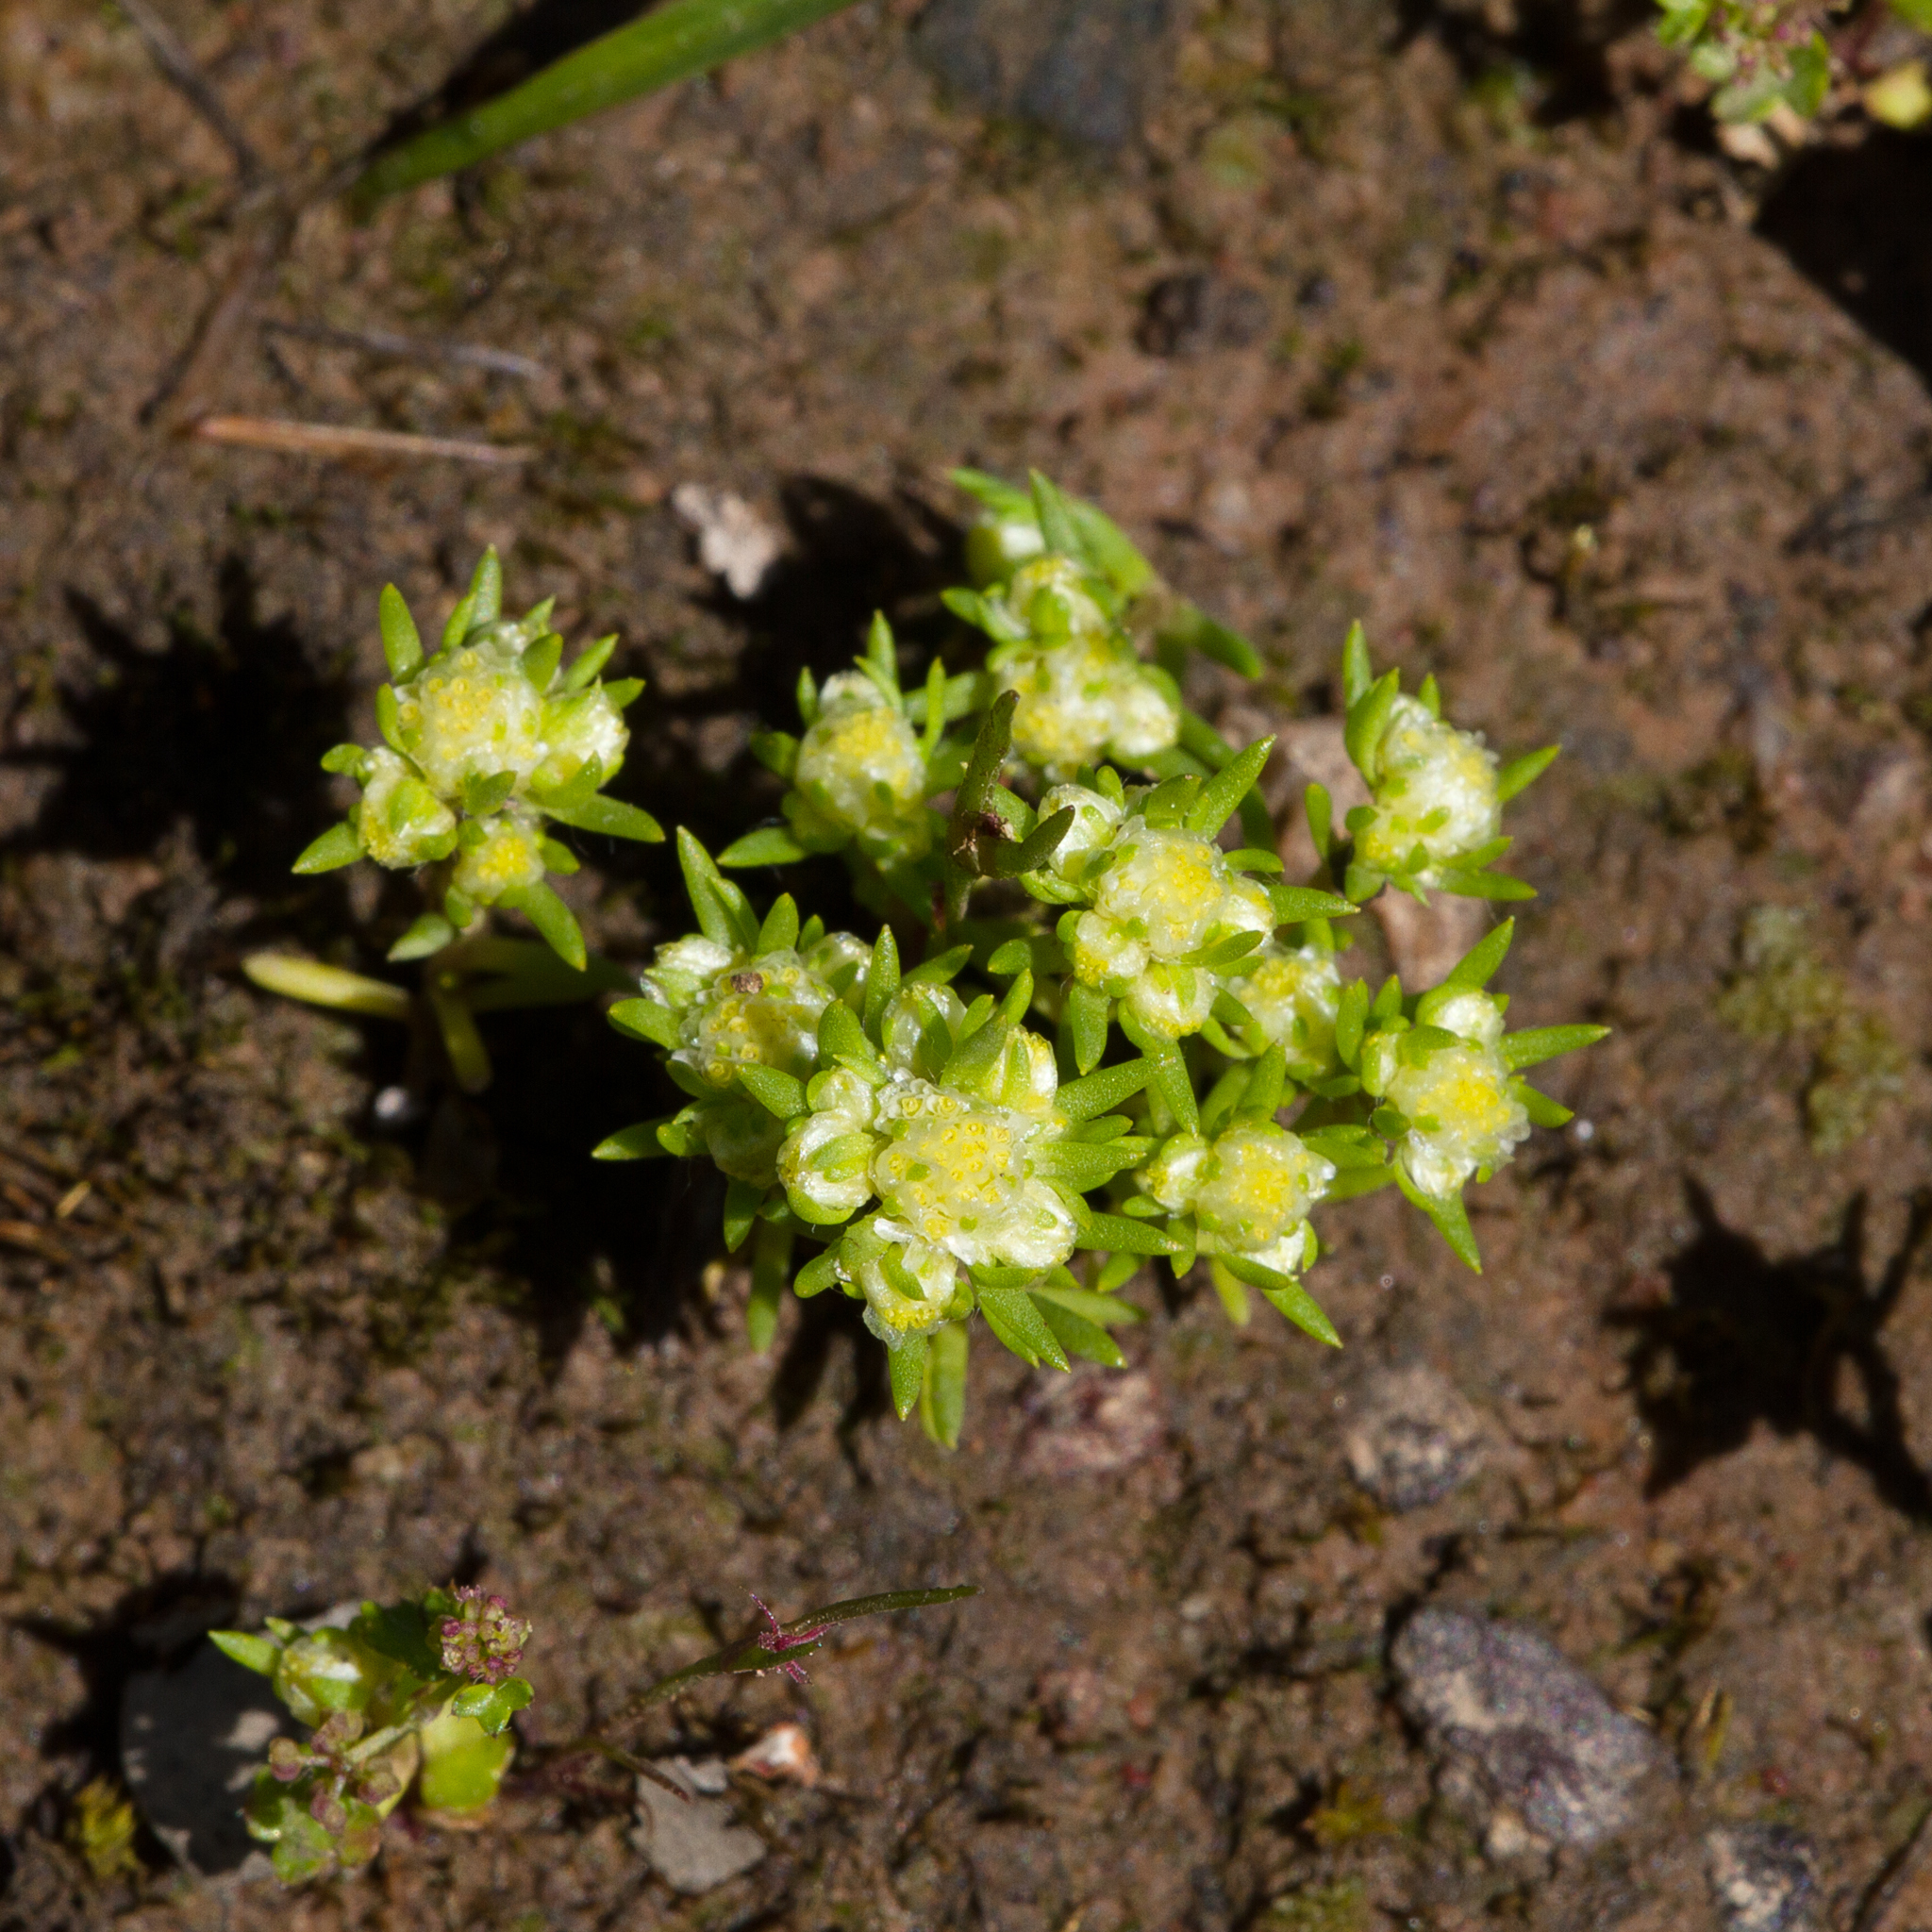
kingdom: Plantae
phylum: Tracheophyta
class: Magnoliopsida
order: Asterales
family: Asteraceae
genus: Siloxerus
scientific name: Siloxerus multiflorus
